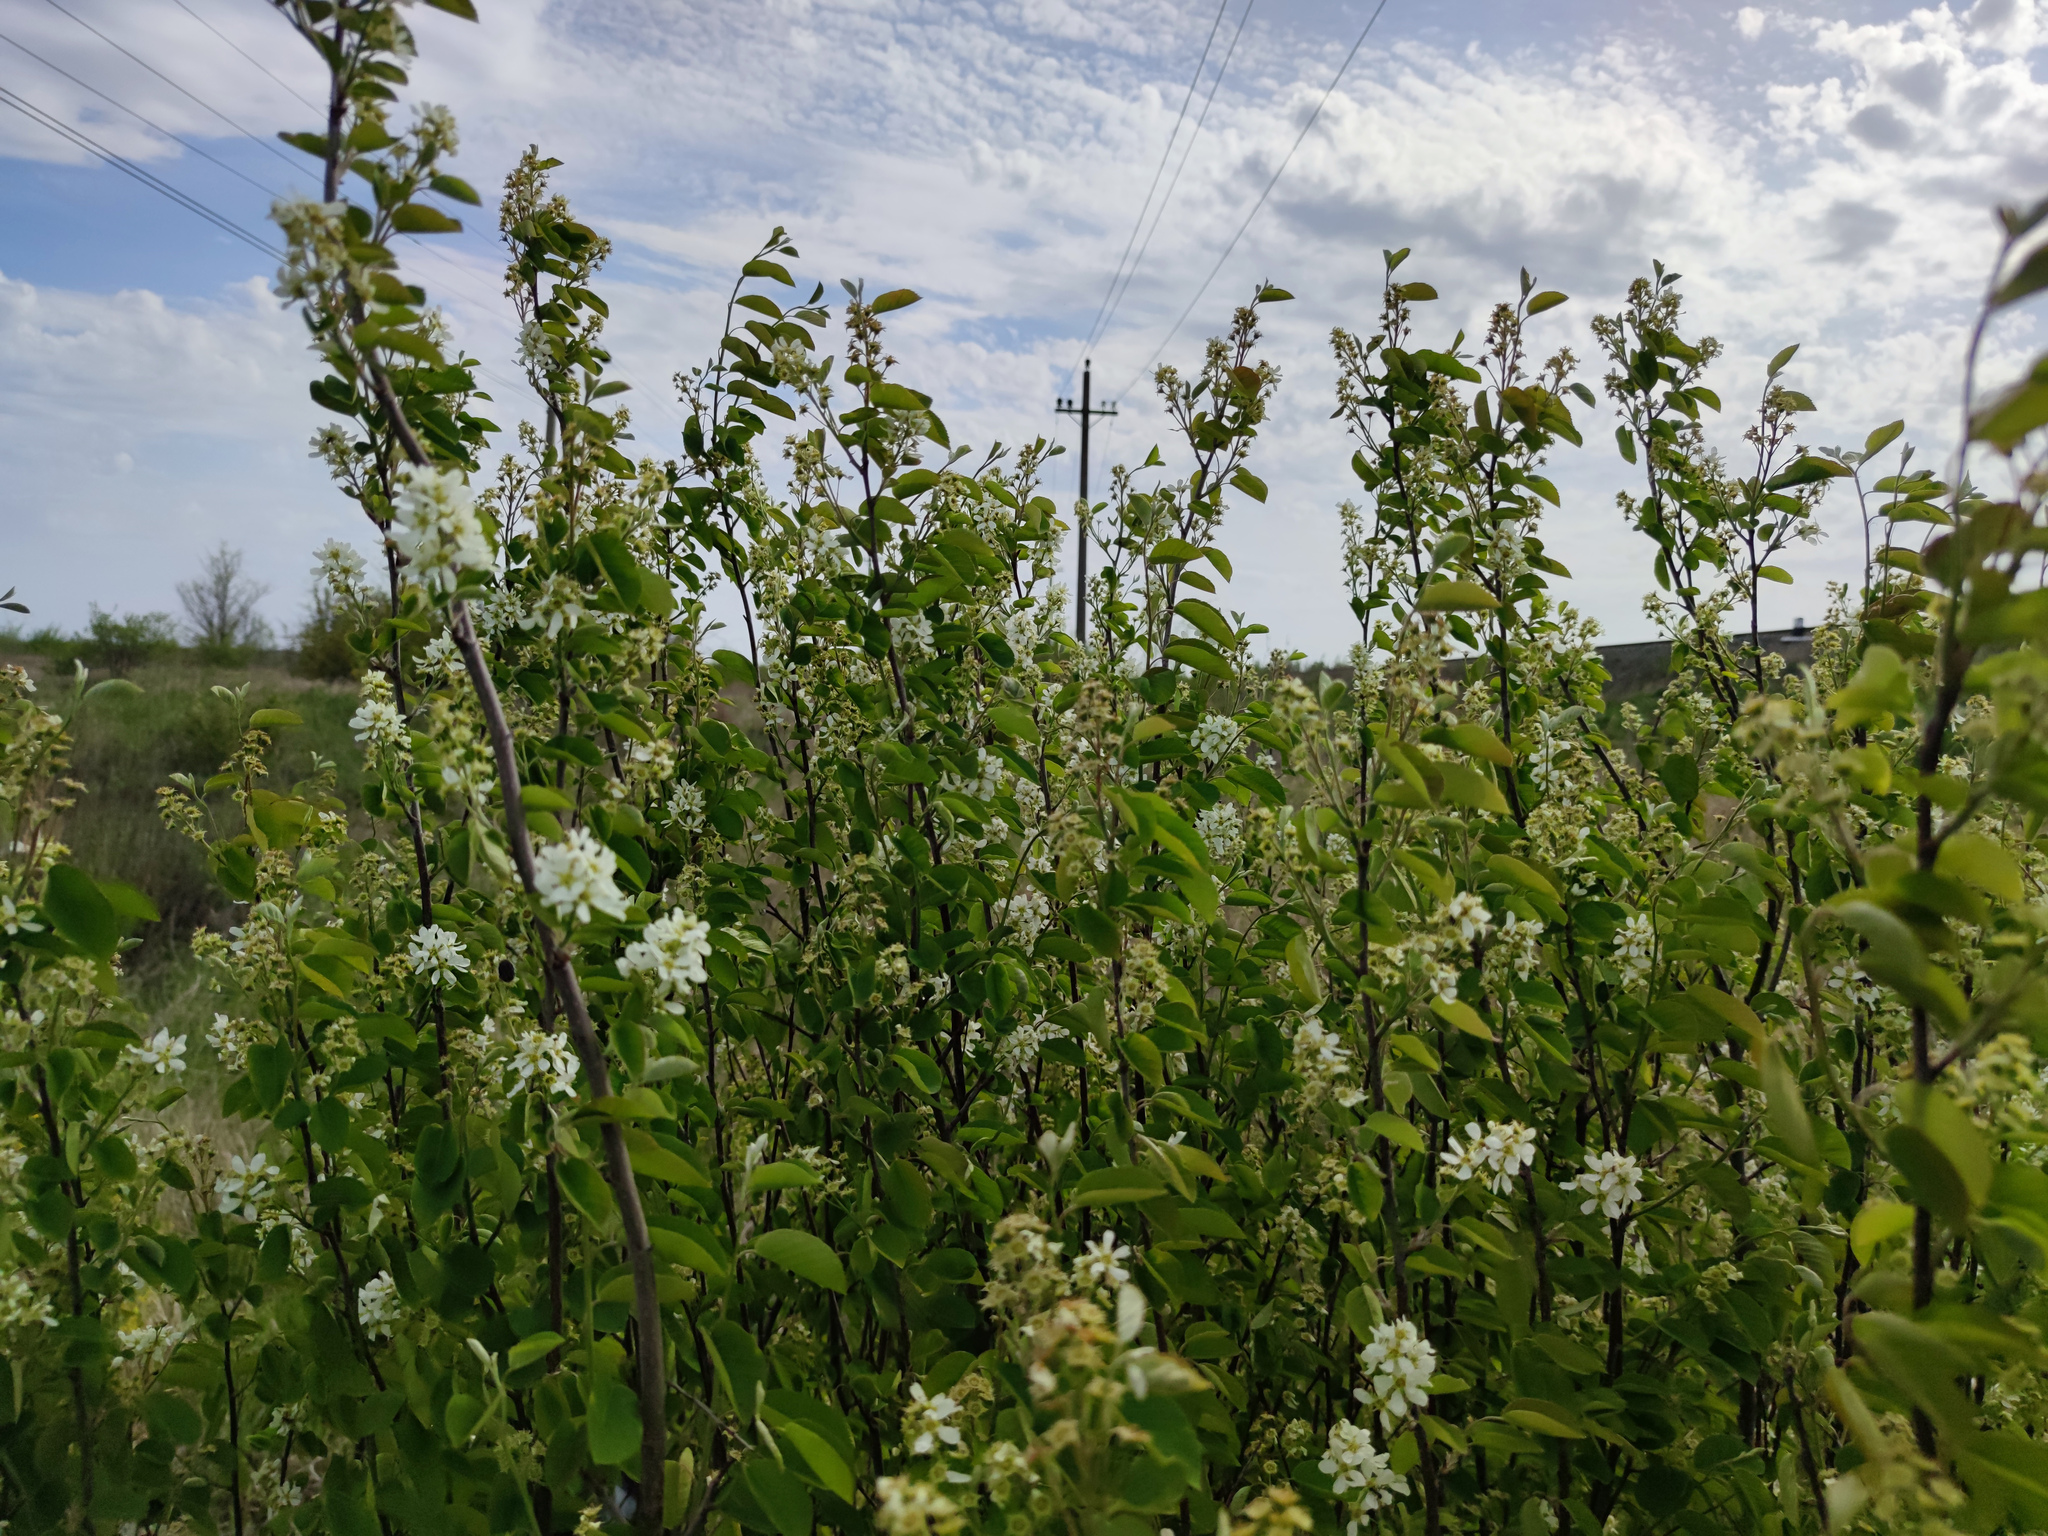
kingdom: Plantae
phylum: Tracheophyta
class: Magnoliopsida
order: Rosales
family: Rosaceae
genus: Amelanchier
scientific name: Amelanchier
